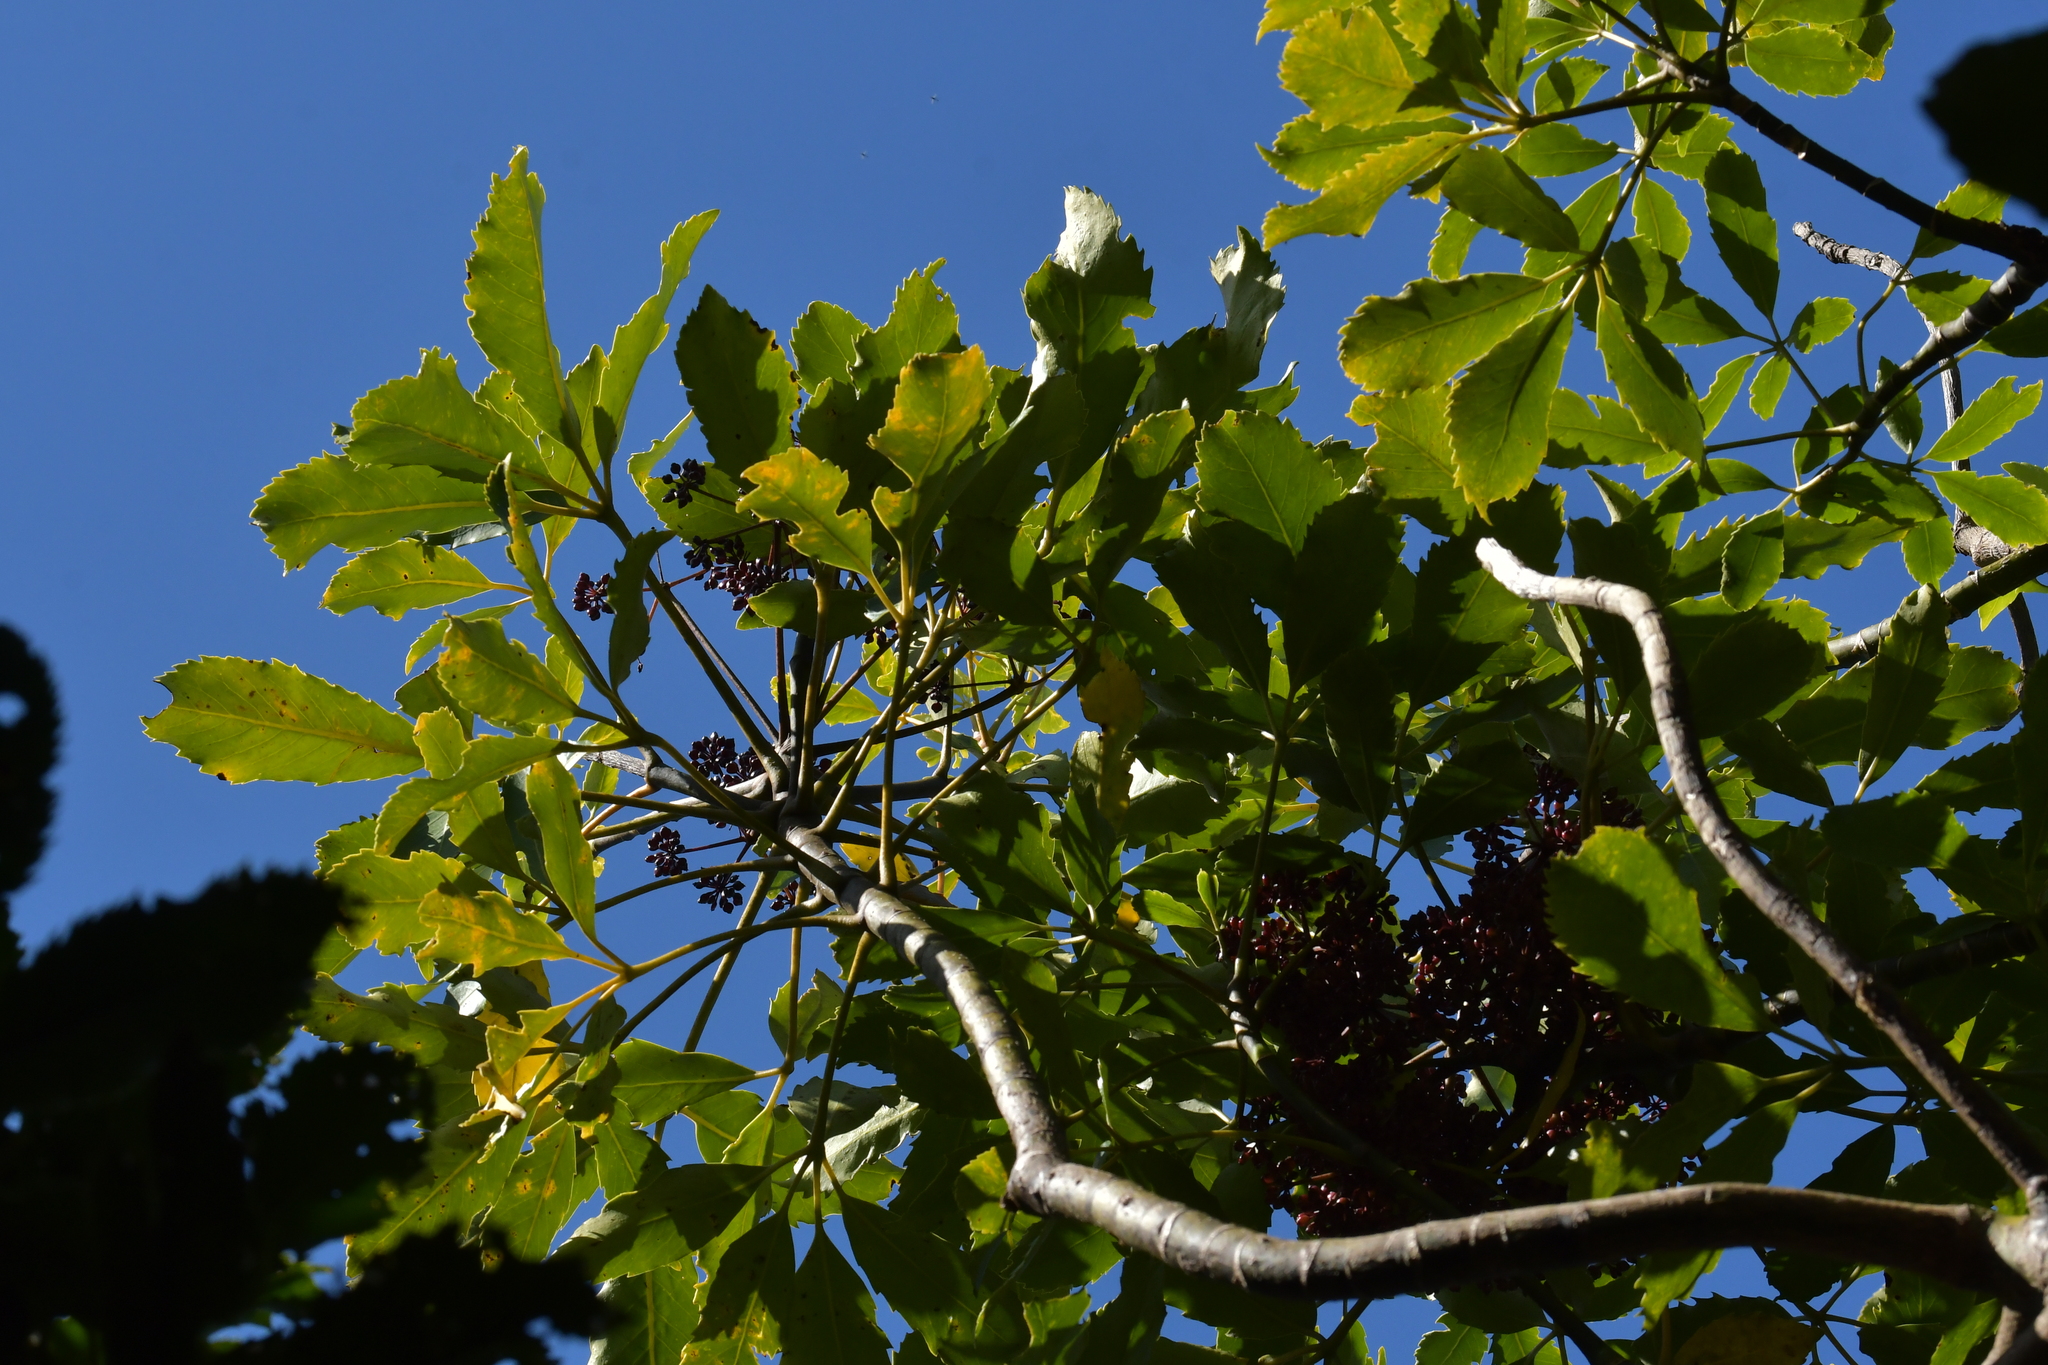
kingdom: Plantae
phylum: Tracheophyta
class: Magnoliopsida
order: Apiales
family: Araliaceae
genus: Neopanax
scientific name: Neopanax arboreus
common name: Five-fingers
